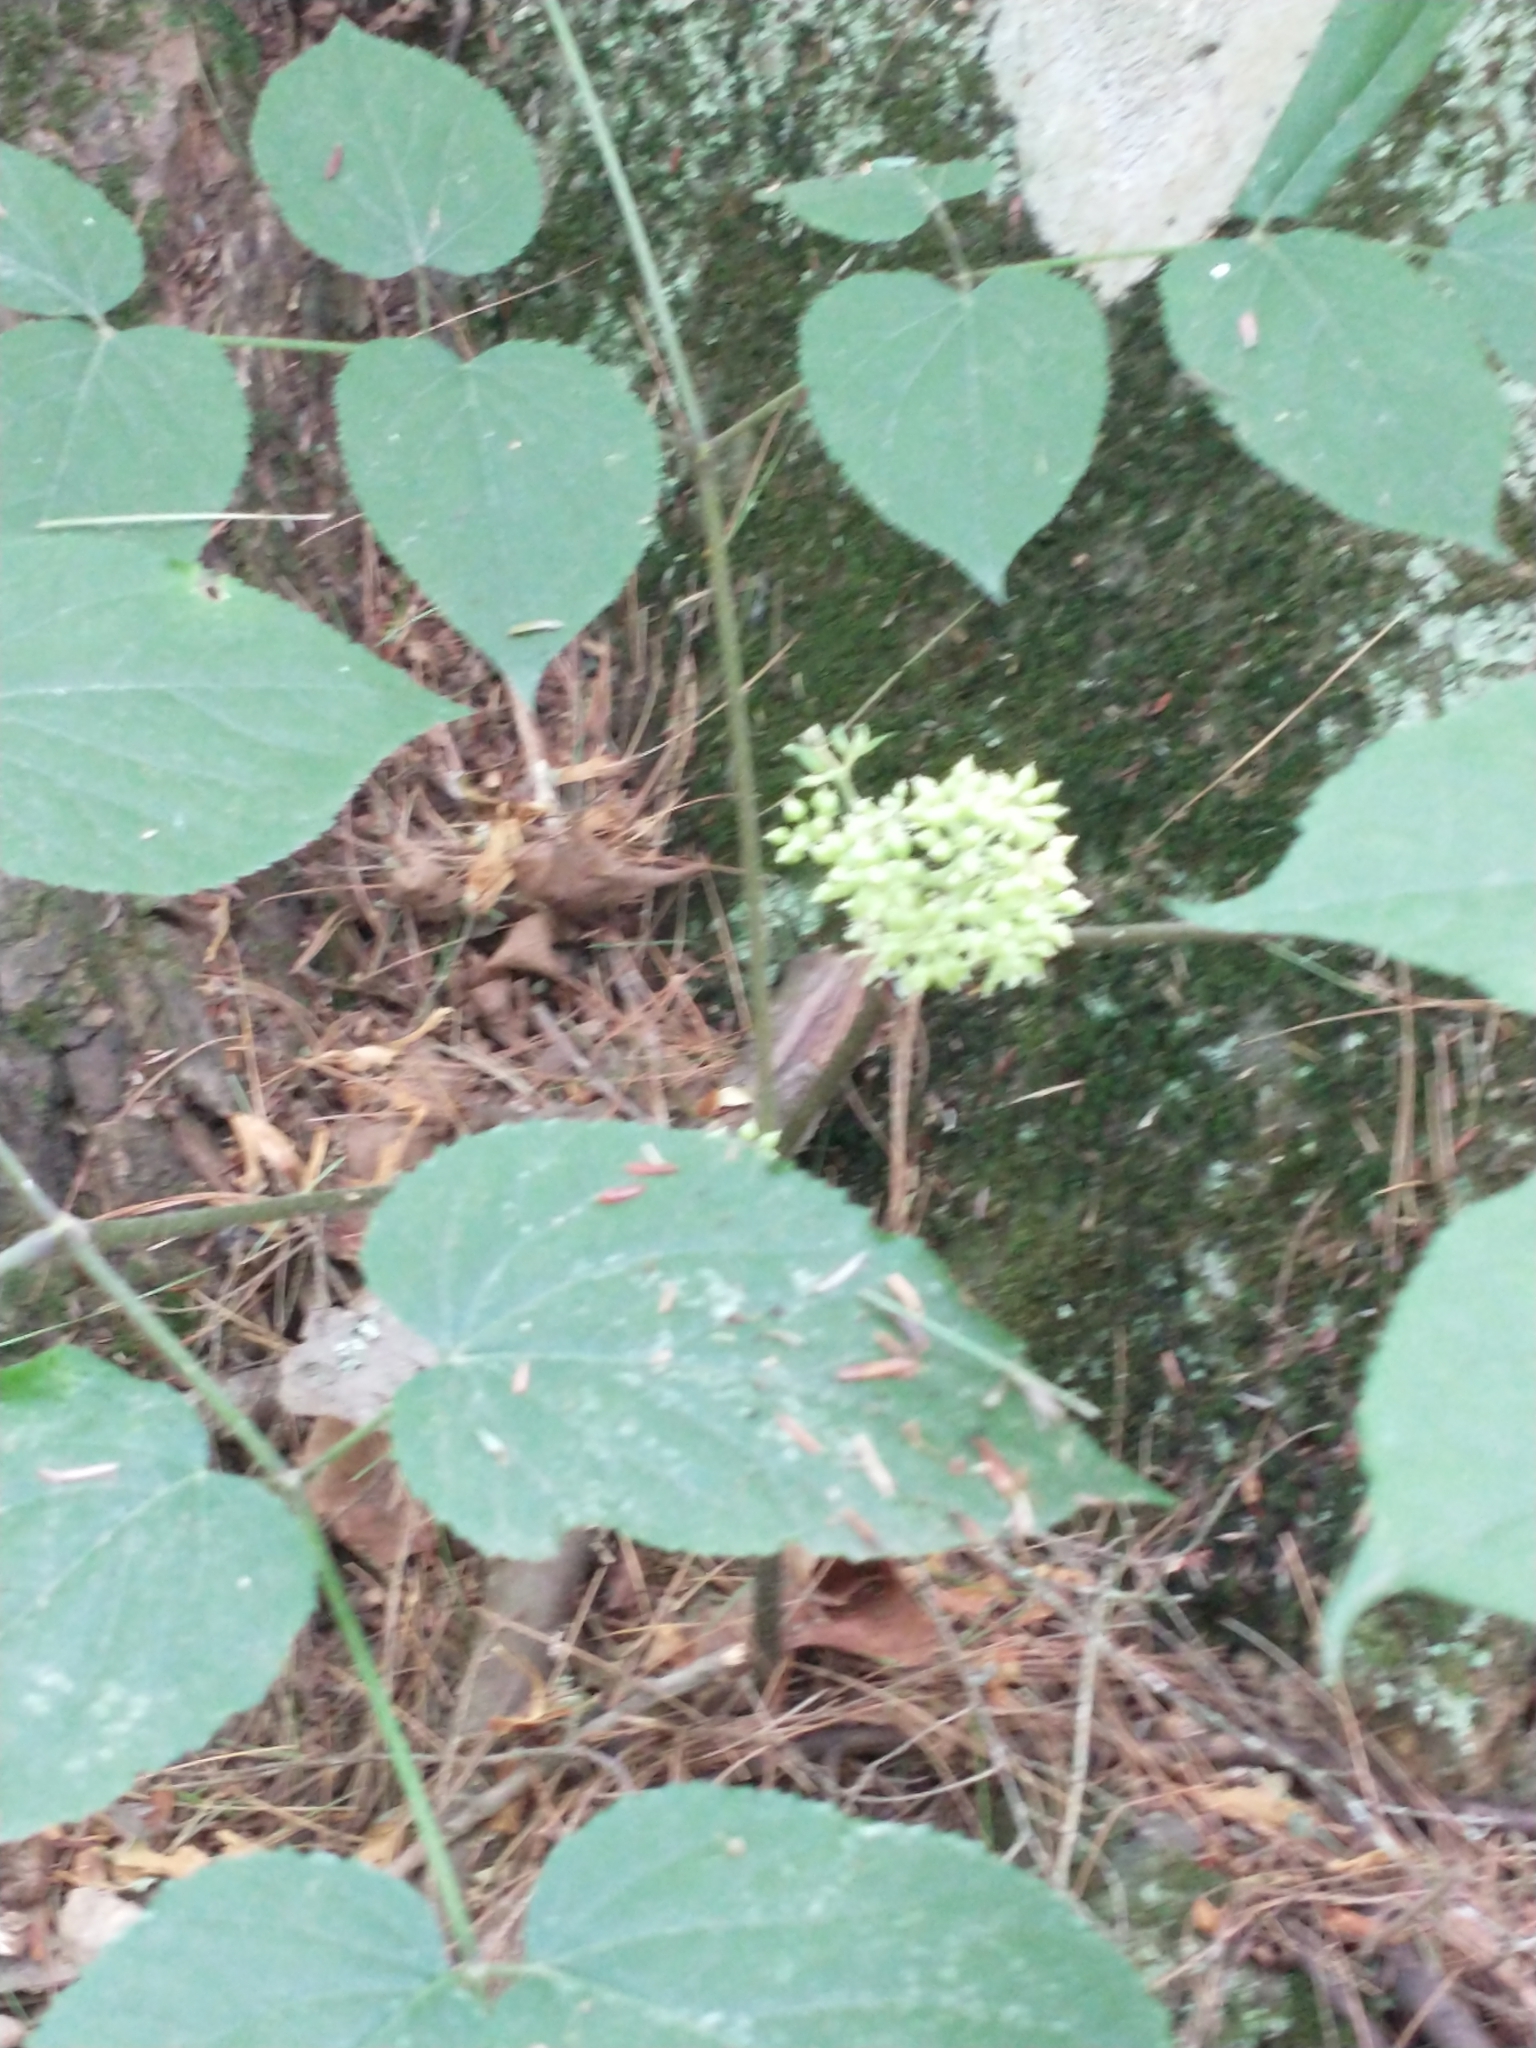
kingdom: Plantae
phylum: Tracheophyta
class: Magnoliopsida
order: Apiales
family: Araliaceae
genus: Aralia
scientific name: Aralia racemosa
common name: American-spikenard
